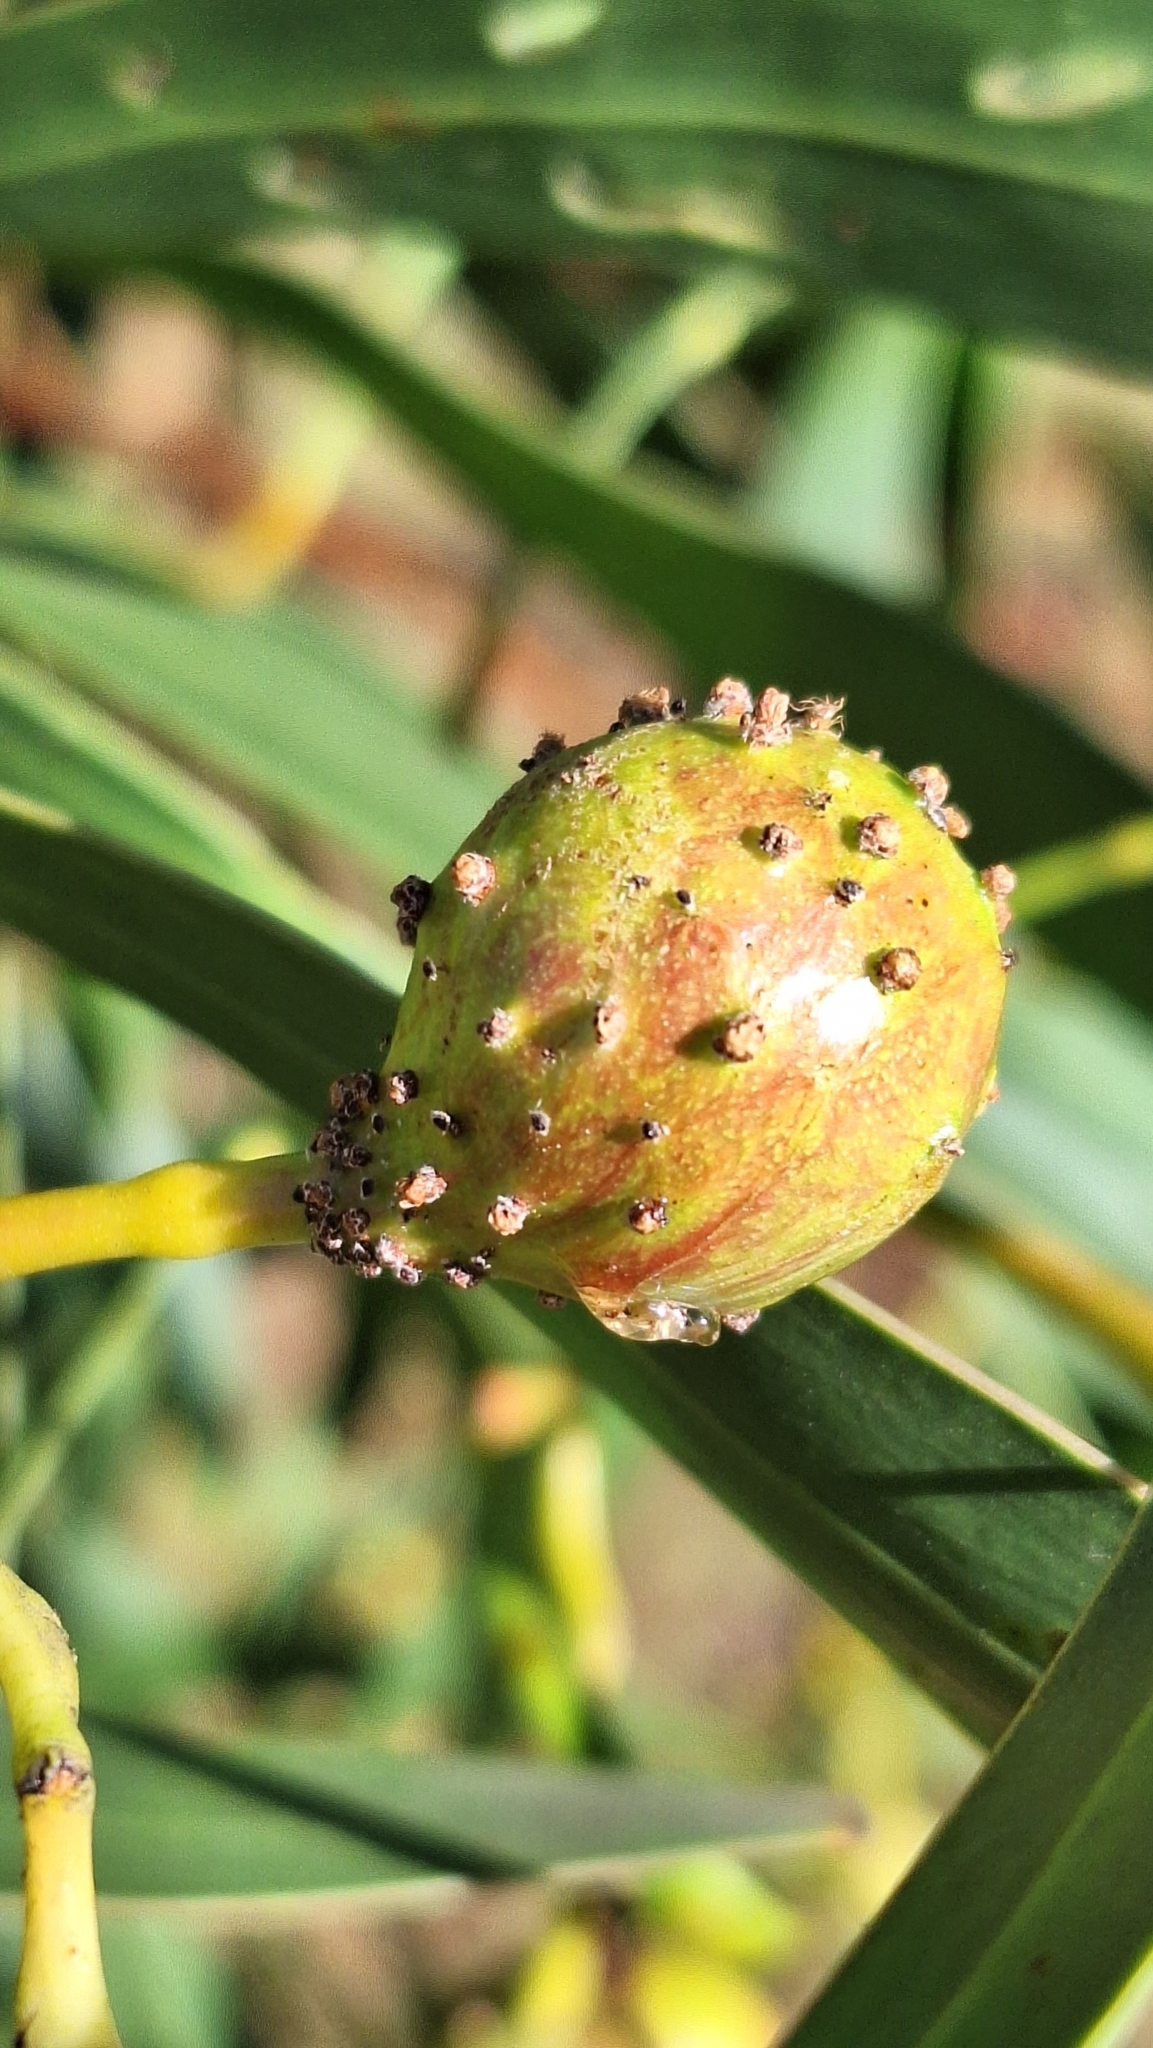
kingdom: Animalia
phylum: Arthropoda
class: Insecta
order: Hymenoptera
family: Pteromalidae
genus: Trichilogaster
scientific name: Trichilogaster signiventris
